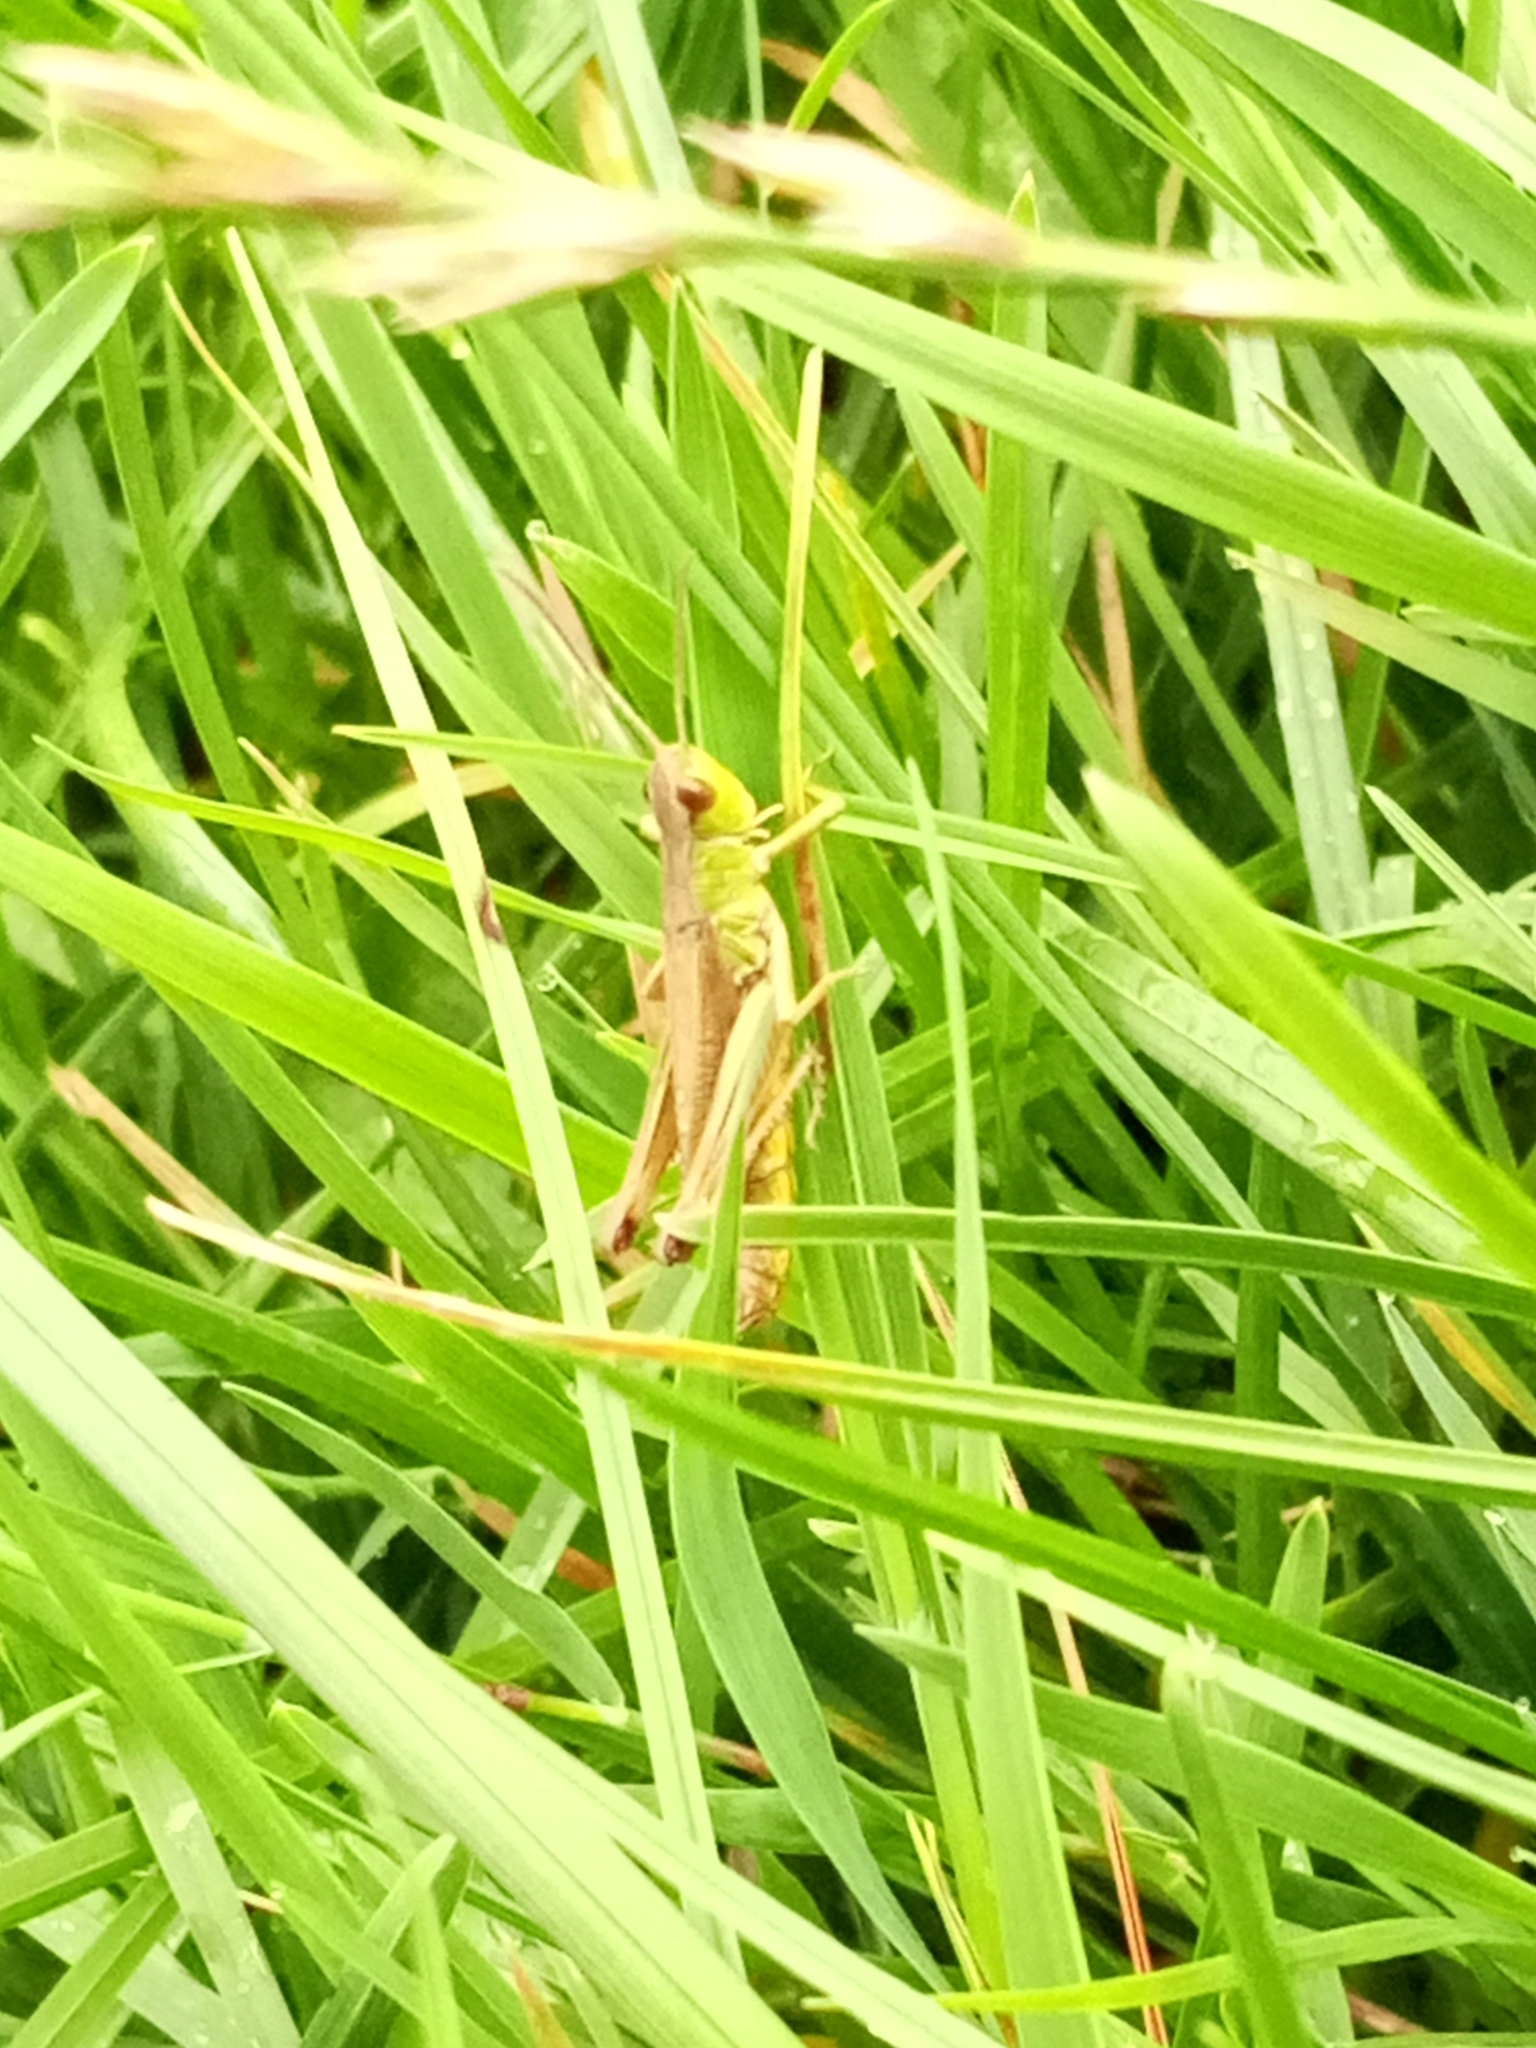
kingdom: Animalia
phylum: Arthropoda
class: Insecta
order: Orthoptera
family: Acrididae
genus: Pseudochorthippus
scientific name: Pseudochorthippus parallelus
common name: Meadow grasshopper
